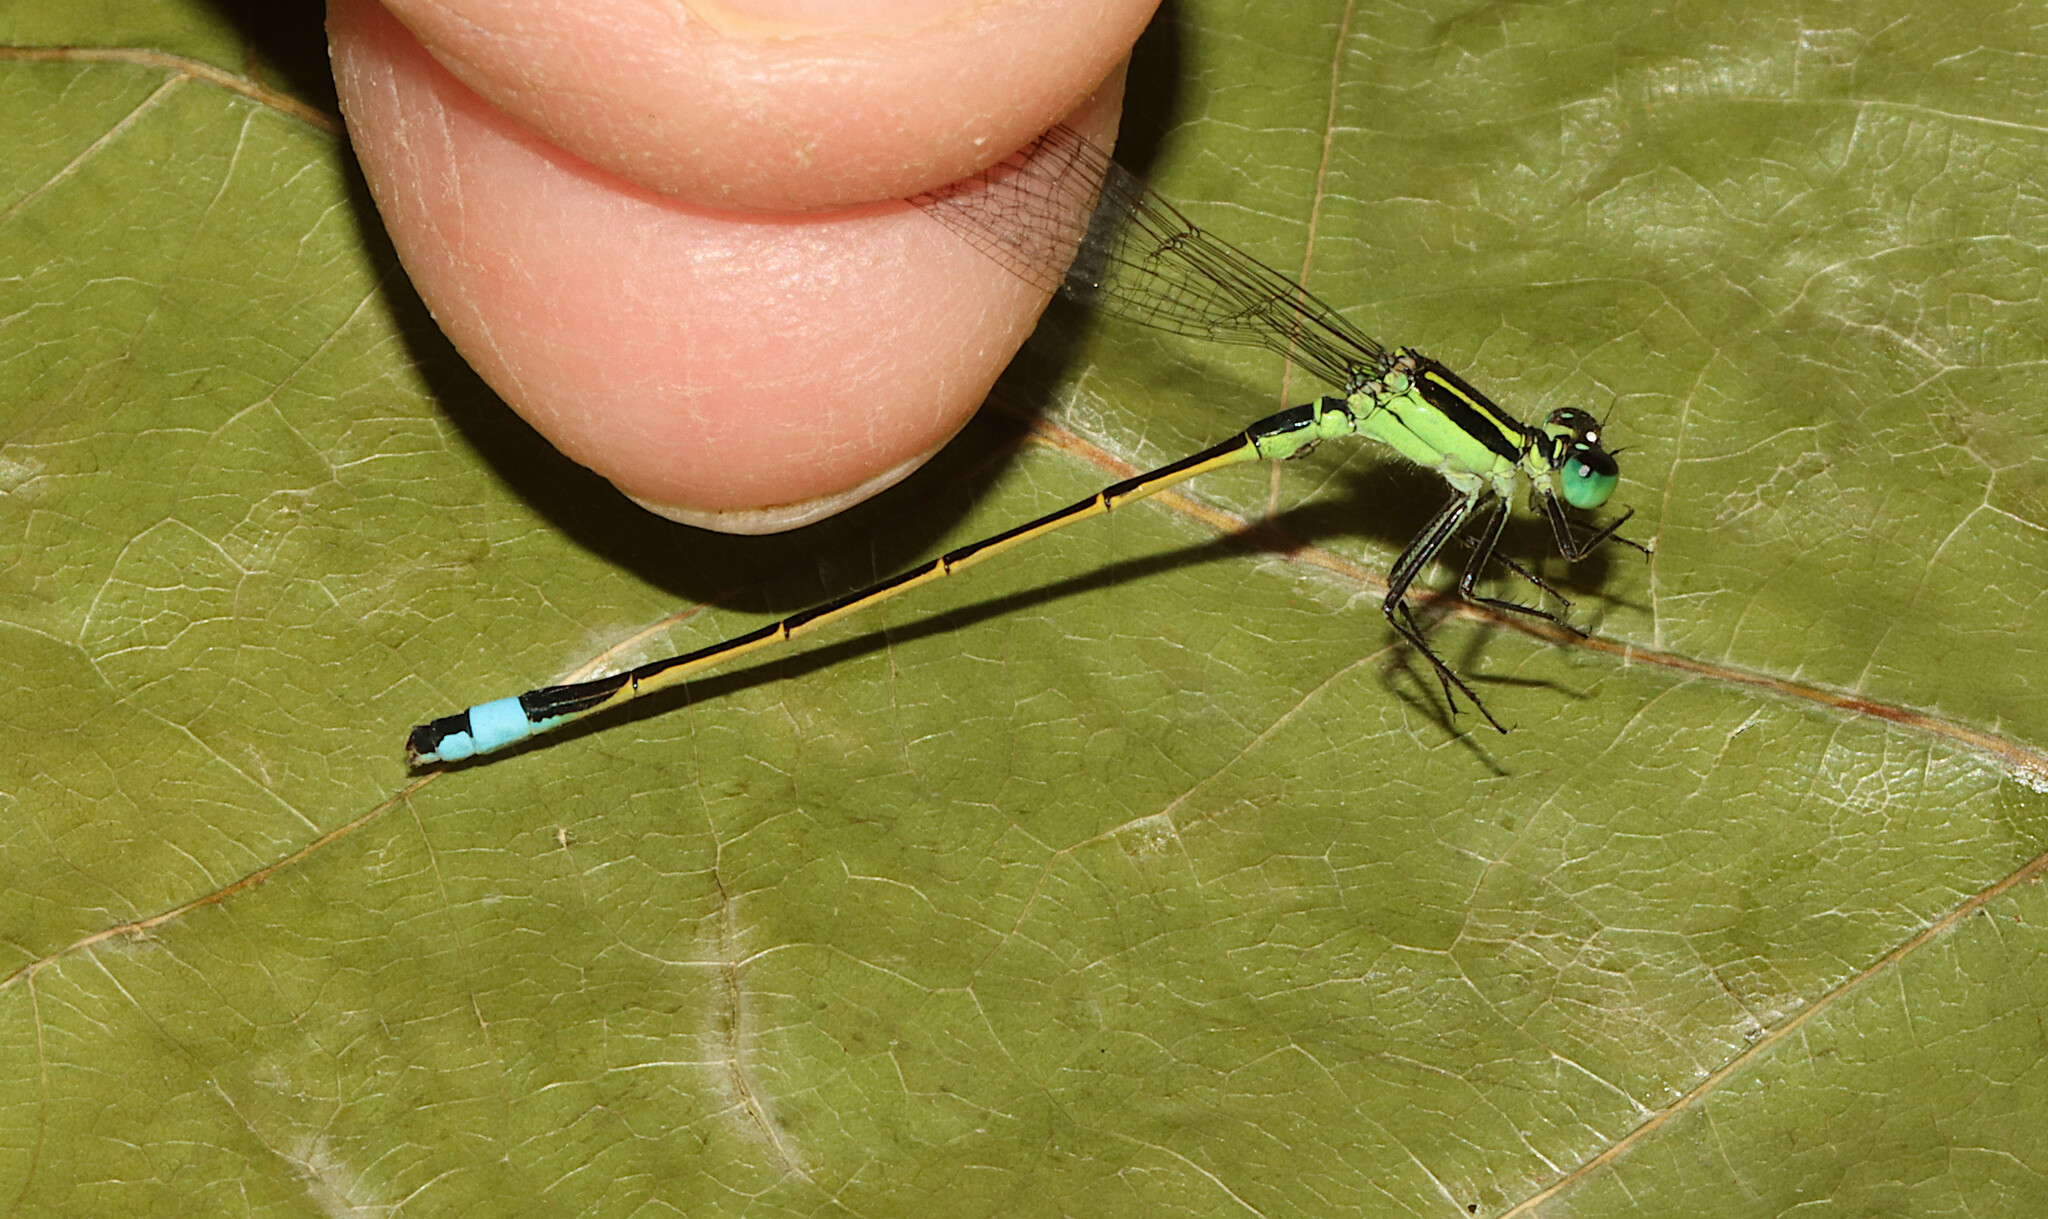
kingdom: Animalia
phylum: Arthropoda
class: Insecta
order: Odonata
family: Coenagrionidae
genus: Ischnura
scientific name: Ischnura ramburii
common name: Rambur's forktail
